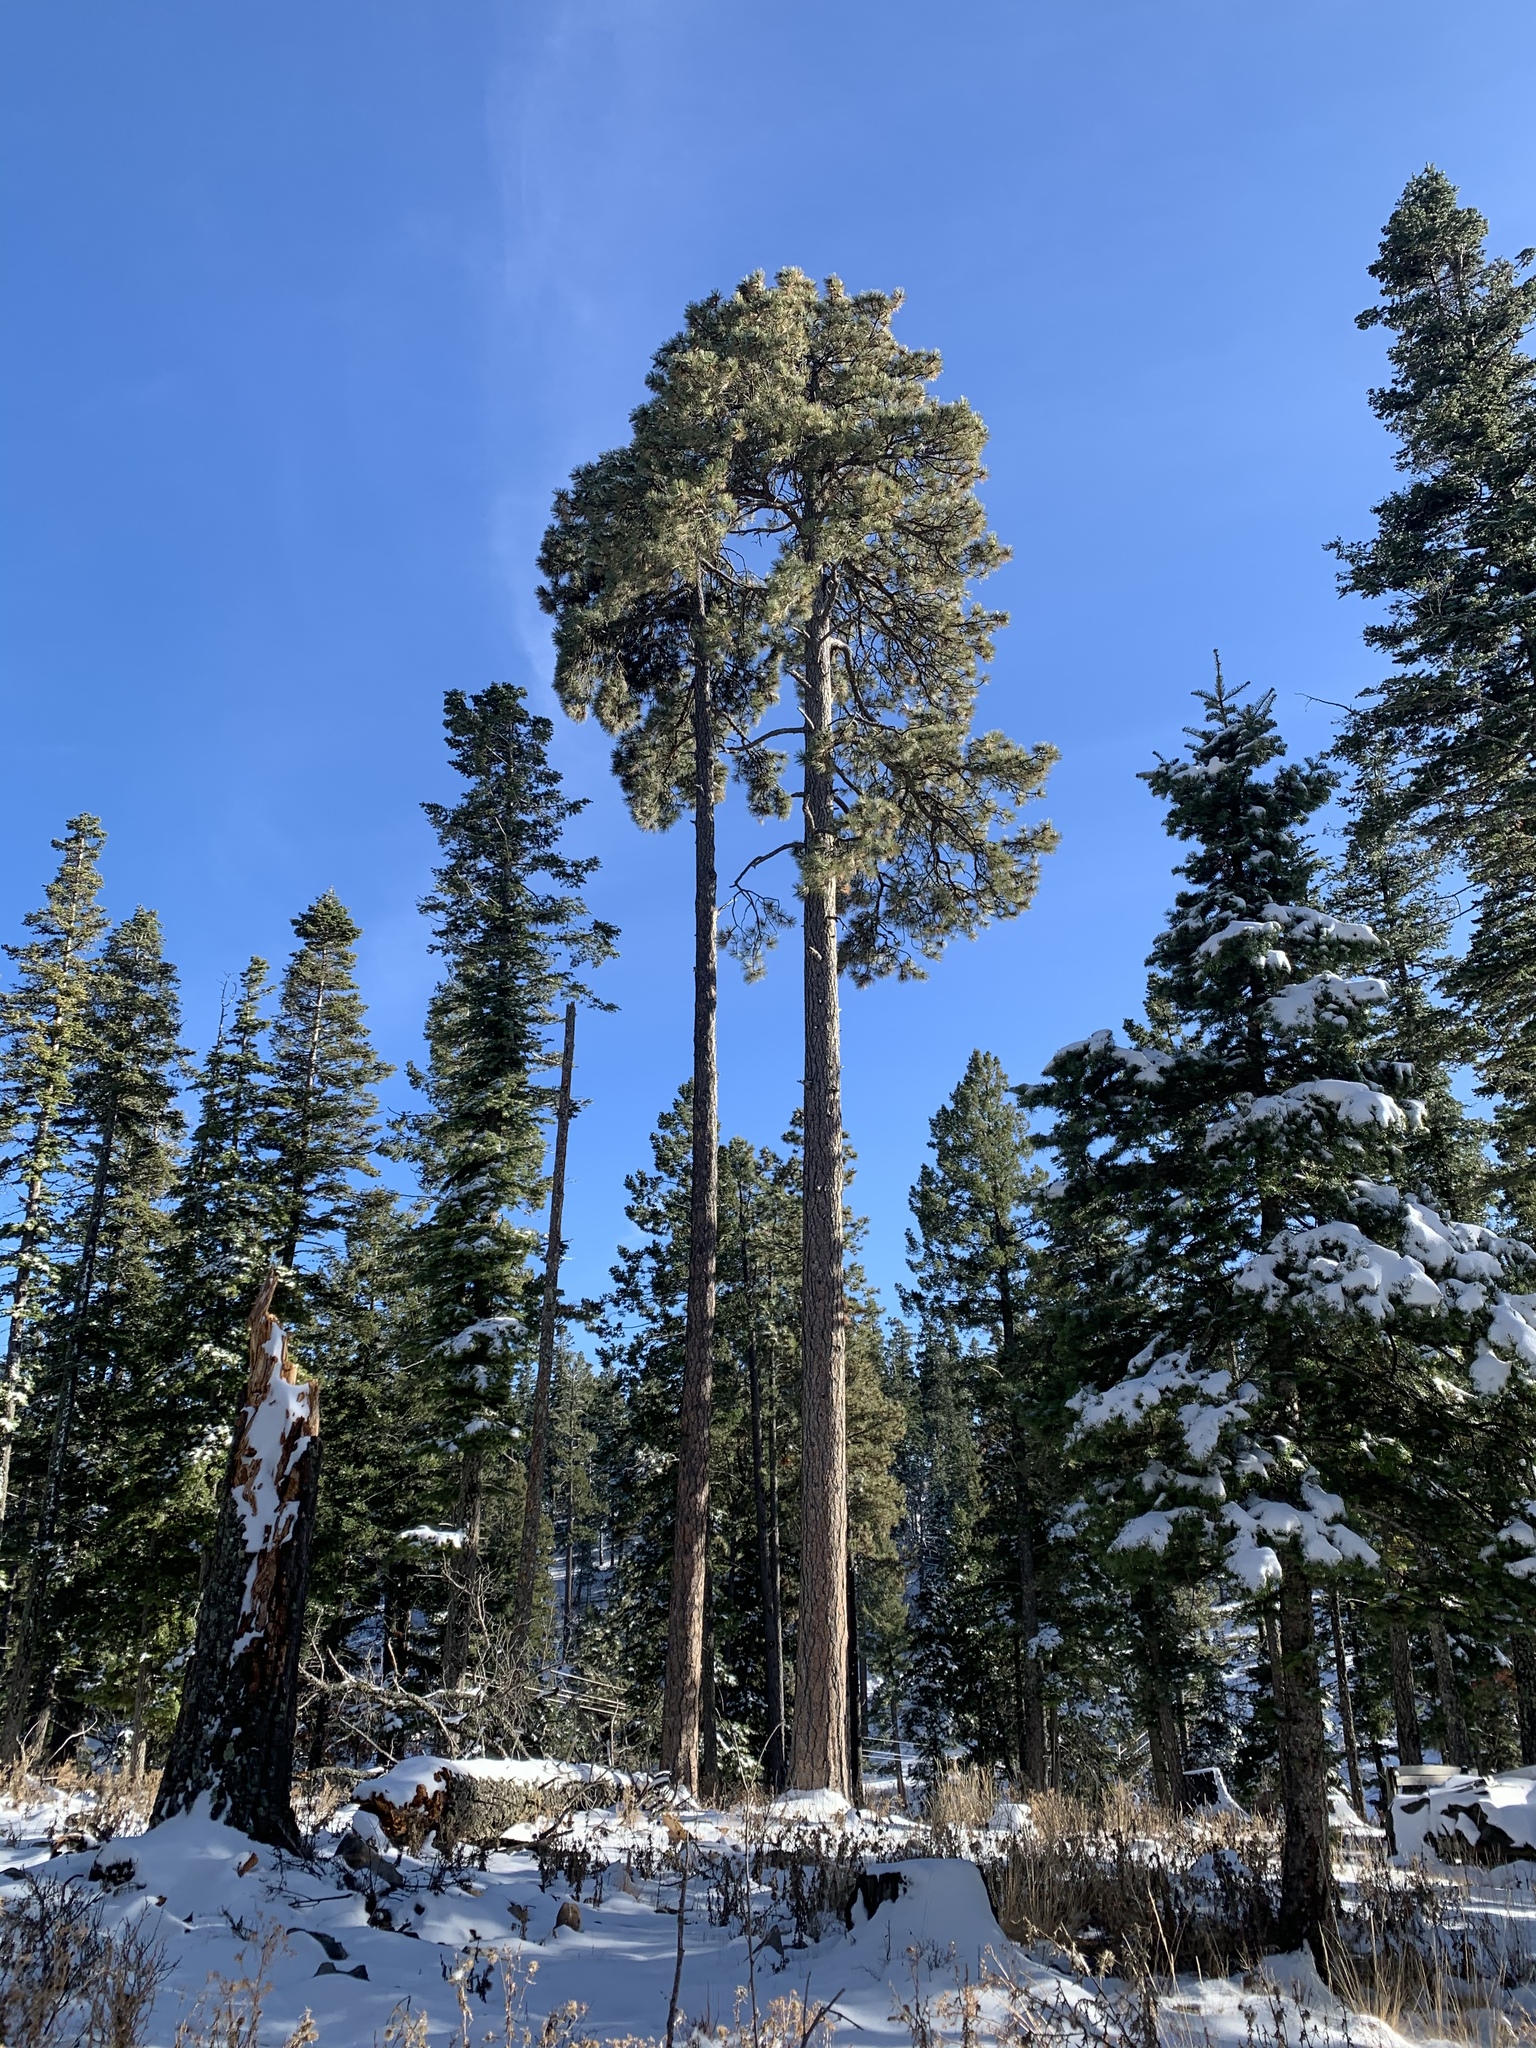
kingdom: Plantae
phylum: Tracheophyta
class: Pinopsida
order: Pinales
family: Pinaceae
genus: Pinus
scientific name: Pinus ponderosa
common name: Western yellow-pine
